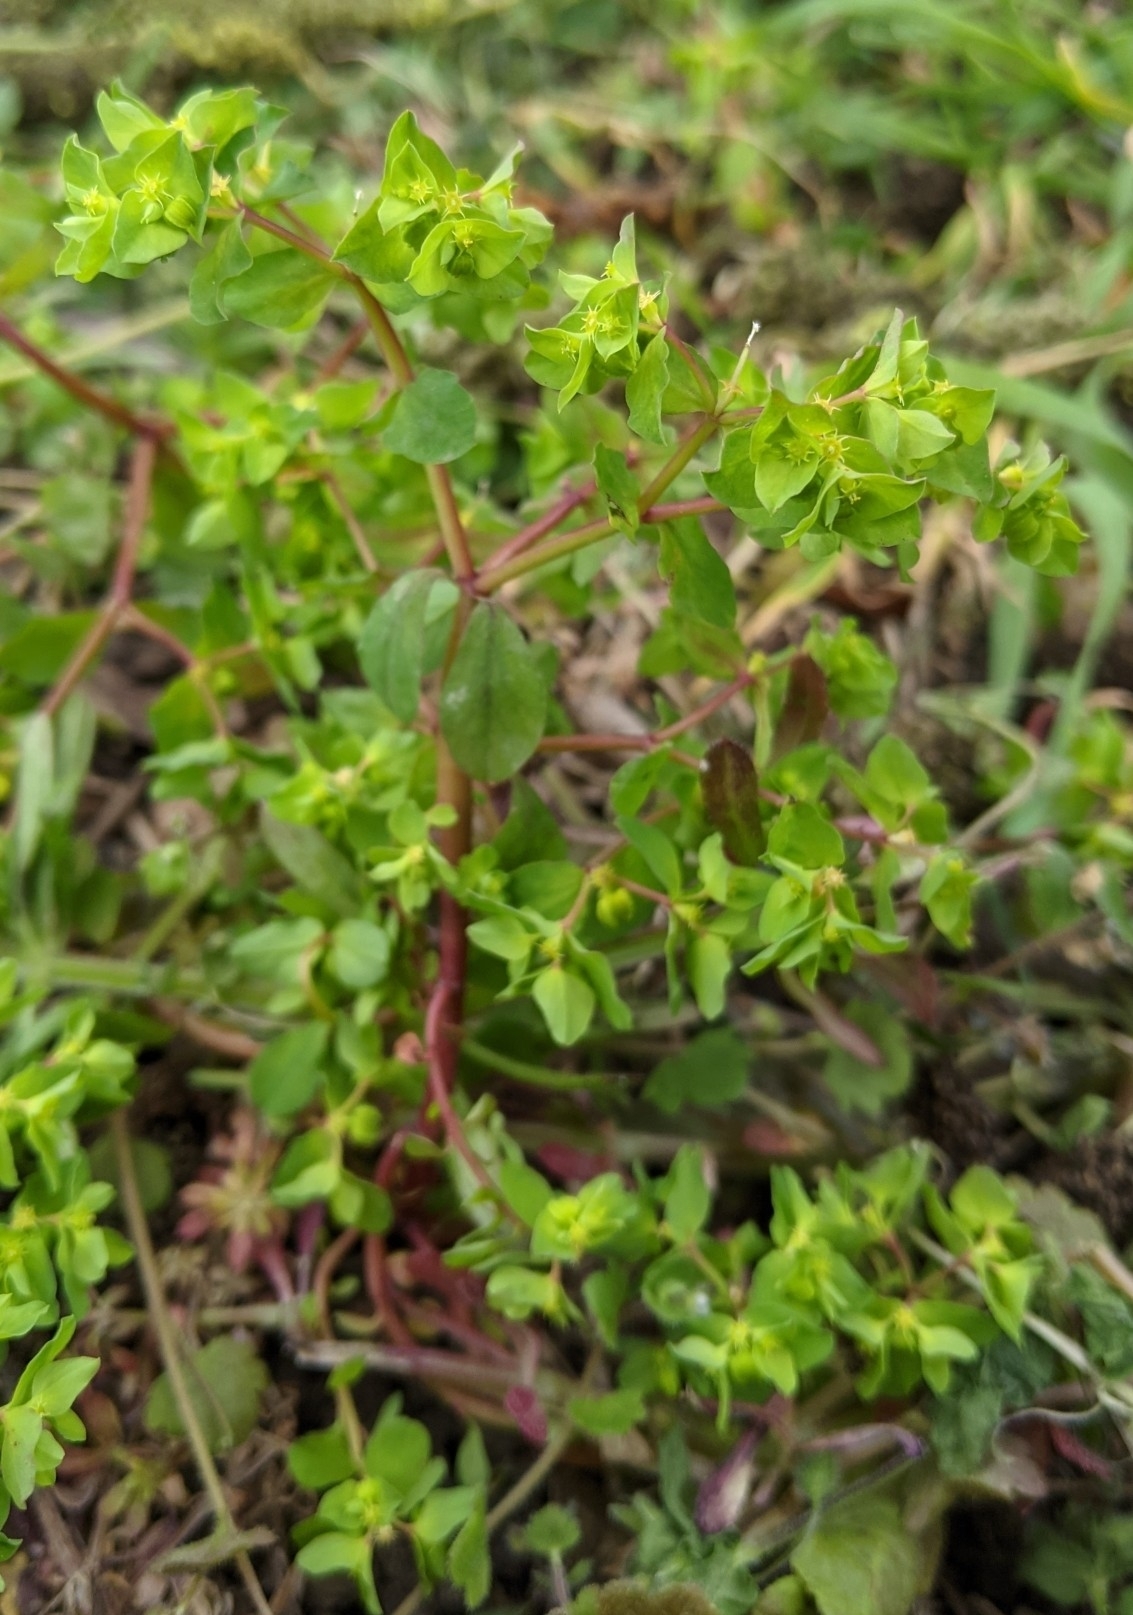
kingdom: Plantae
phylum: Tracheophyta
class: Magnoliopsida
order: Malpighiales
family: Euphorbiaceae
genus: Euphorbia
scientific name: Euphorbia peplus
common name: Petty spurge
